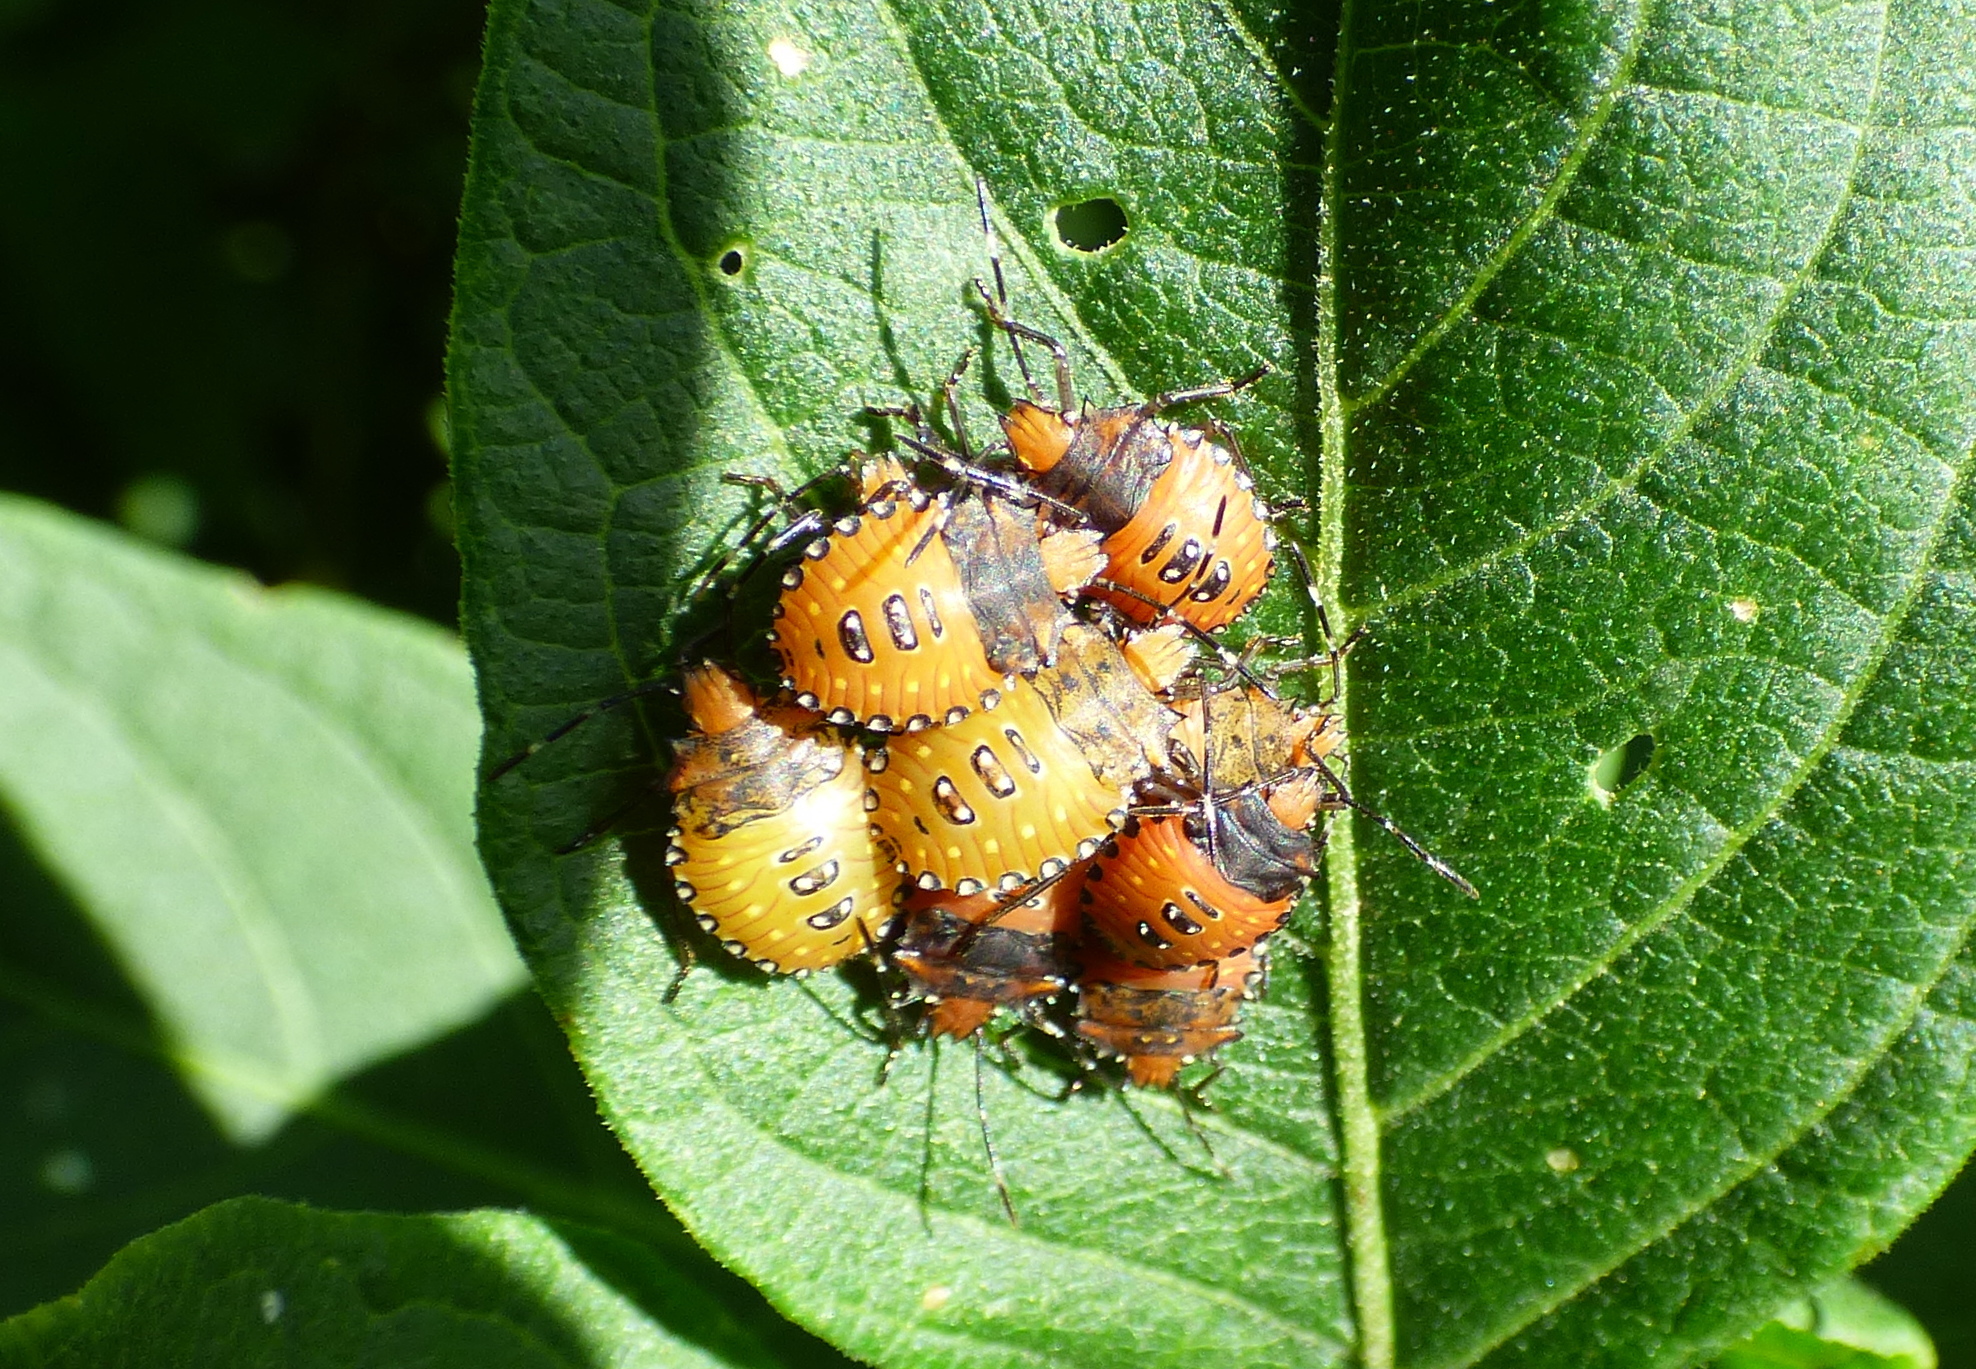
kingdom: Animalia
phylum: Arthropoda
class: Insecta
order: Hemiptera
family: Pentatomidae
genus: Arvelius
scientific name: Arvelius albopunctatus
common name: Tomato stink bug
